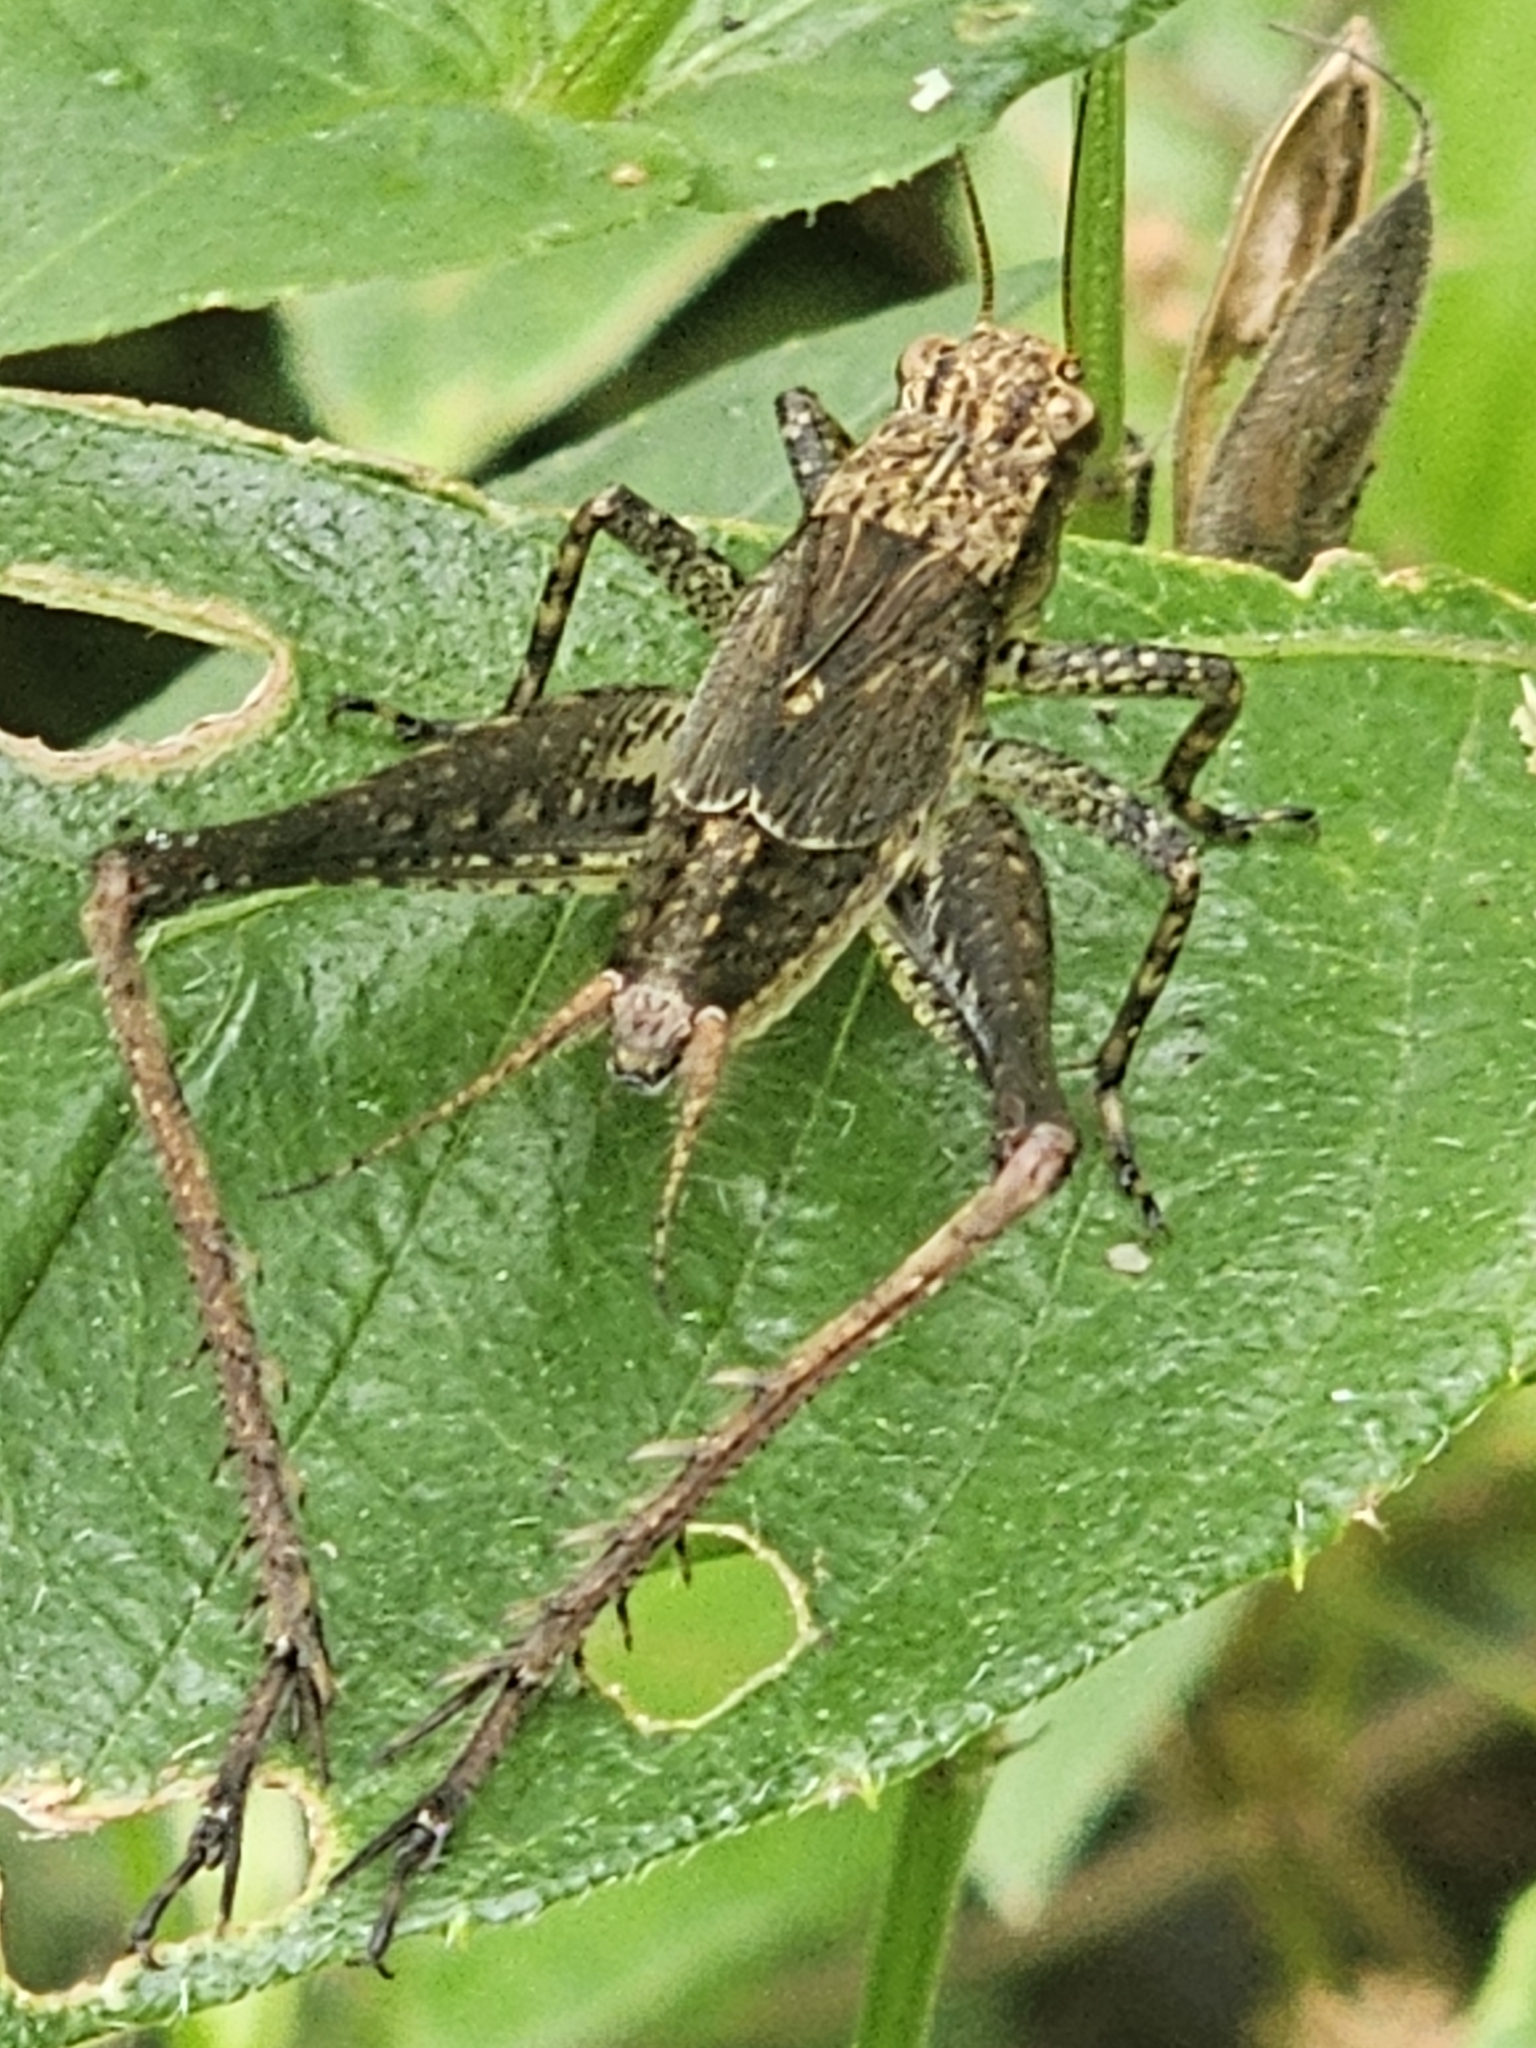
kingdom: Animalia
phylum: Arthropoda
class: Insecta
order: Orthoptera
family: Gryllidae
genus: Eneoptera
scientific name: Eneoptera surinamensis
